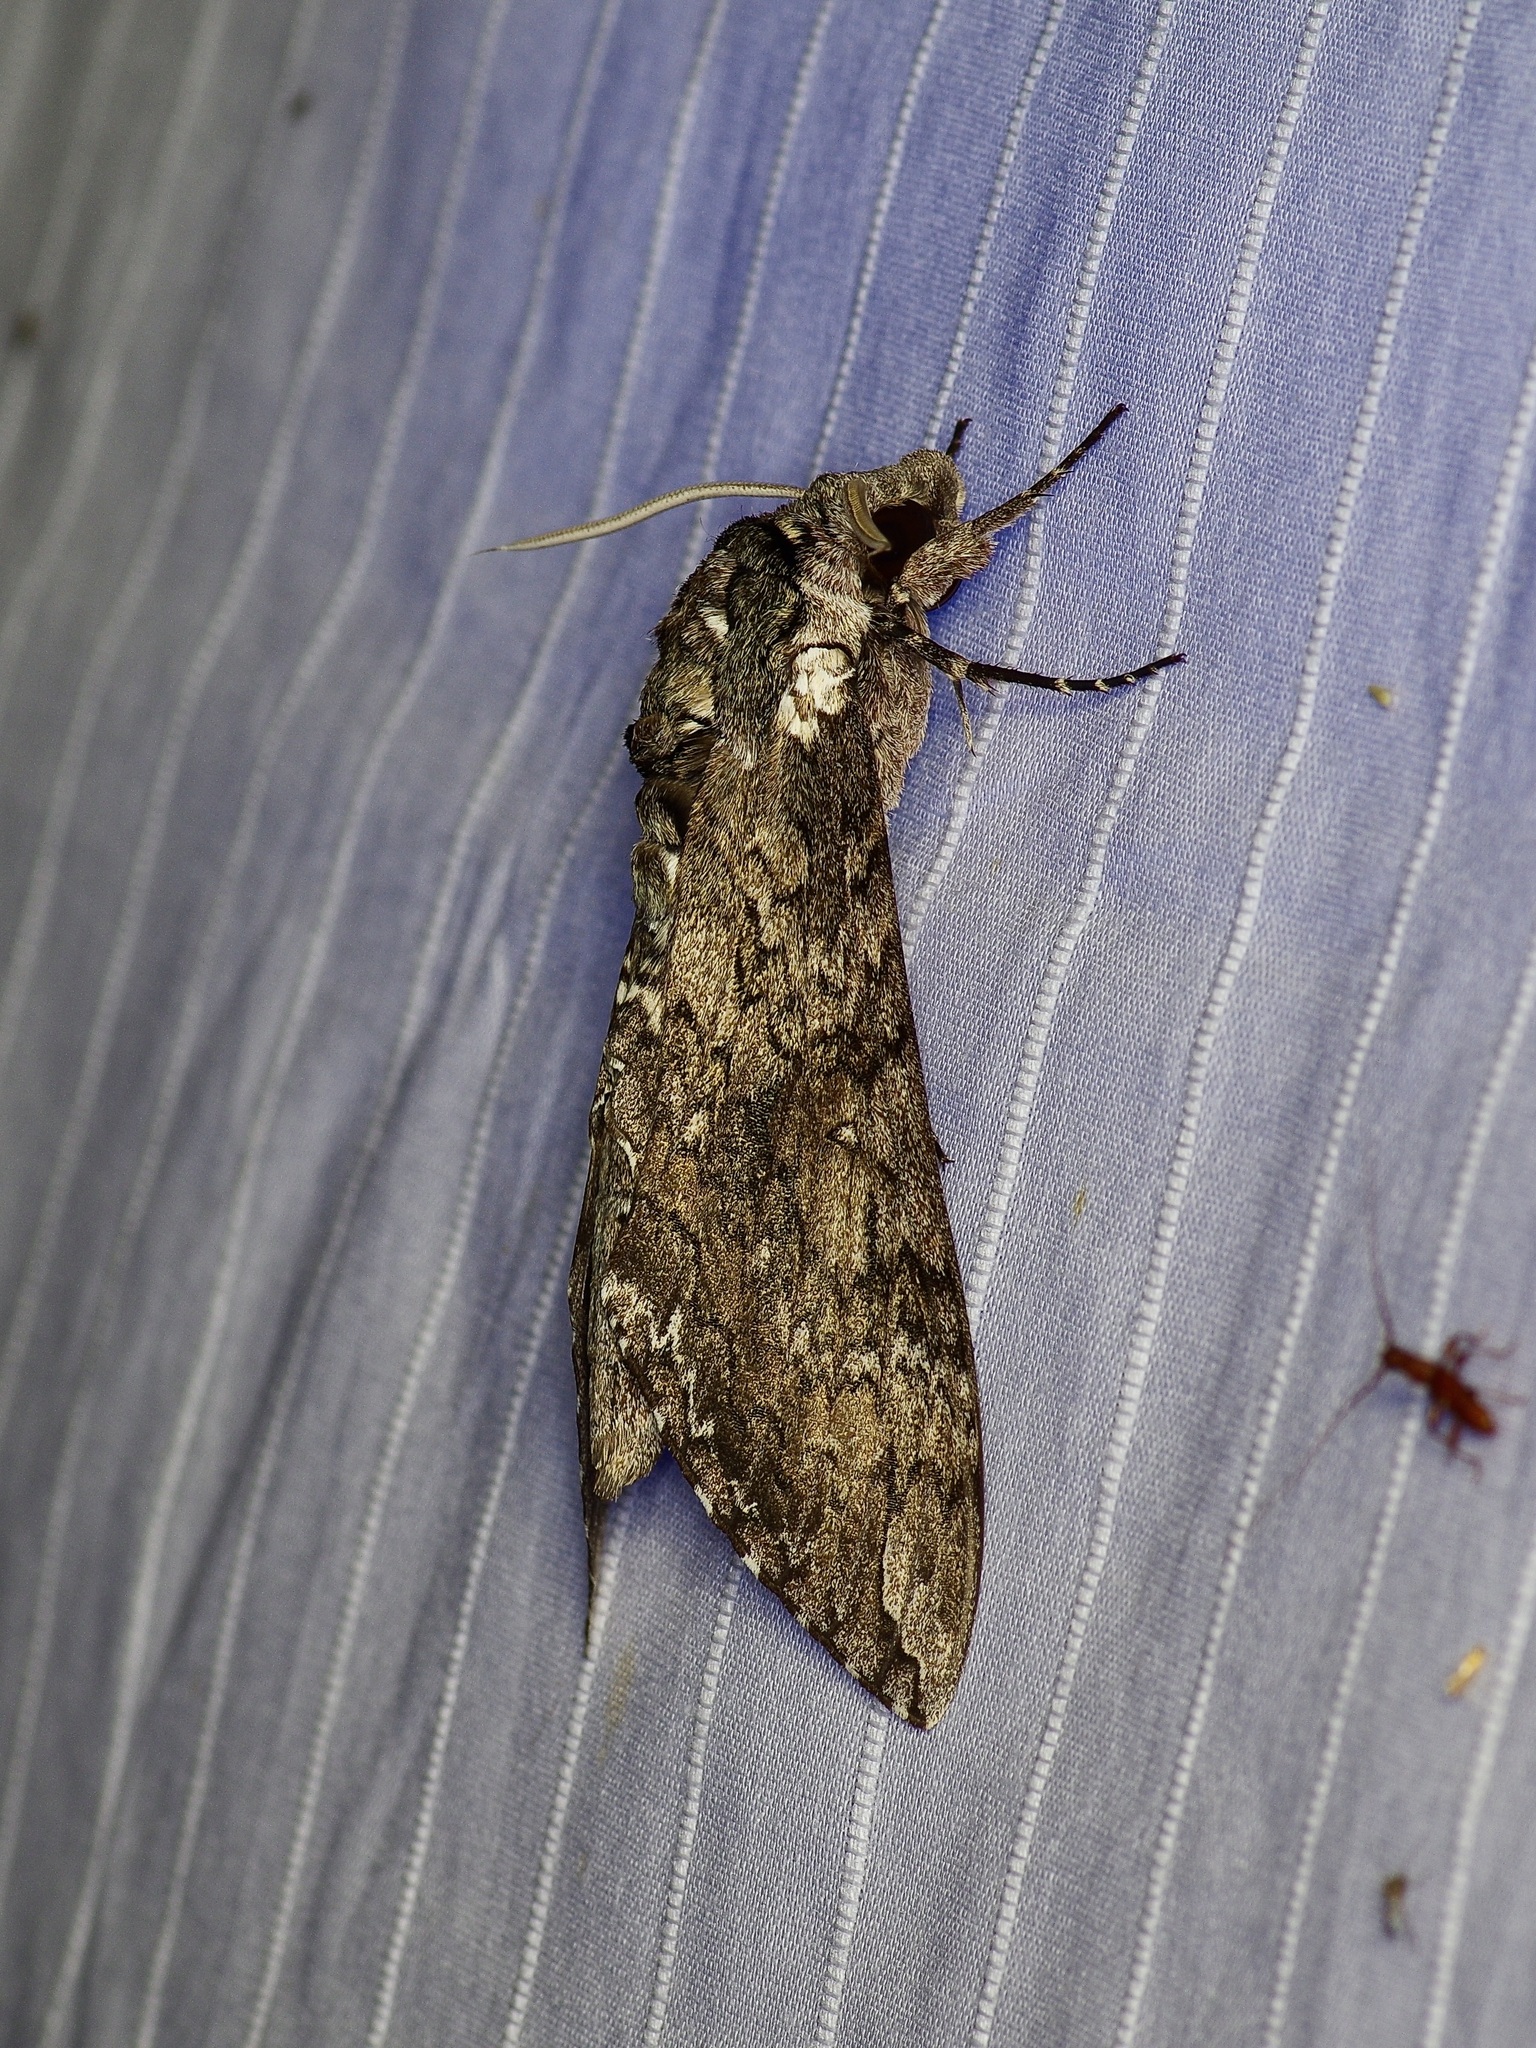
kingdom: Animalia
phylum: Arthropoda
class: Insecta
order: Lepidoptera
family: Sphingidae
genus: Manduca
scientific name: Manduca sexta
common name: Carolina sphinx
